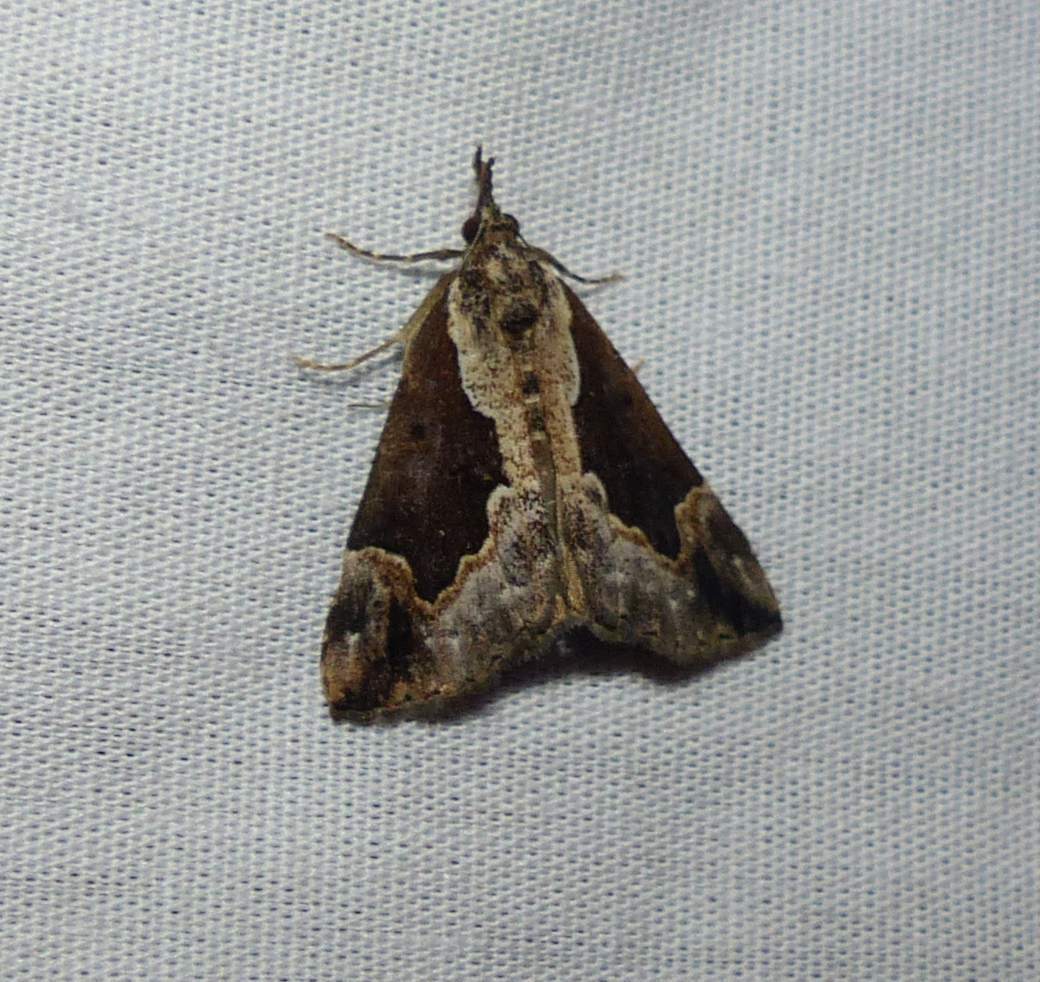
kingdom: Animalia
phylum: Arthropoda
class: Insecta
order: Lepidoptera
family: Erebidae
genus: Hypena
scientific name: Hypena baltimoralis
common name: Baltimore snout
